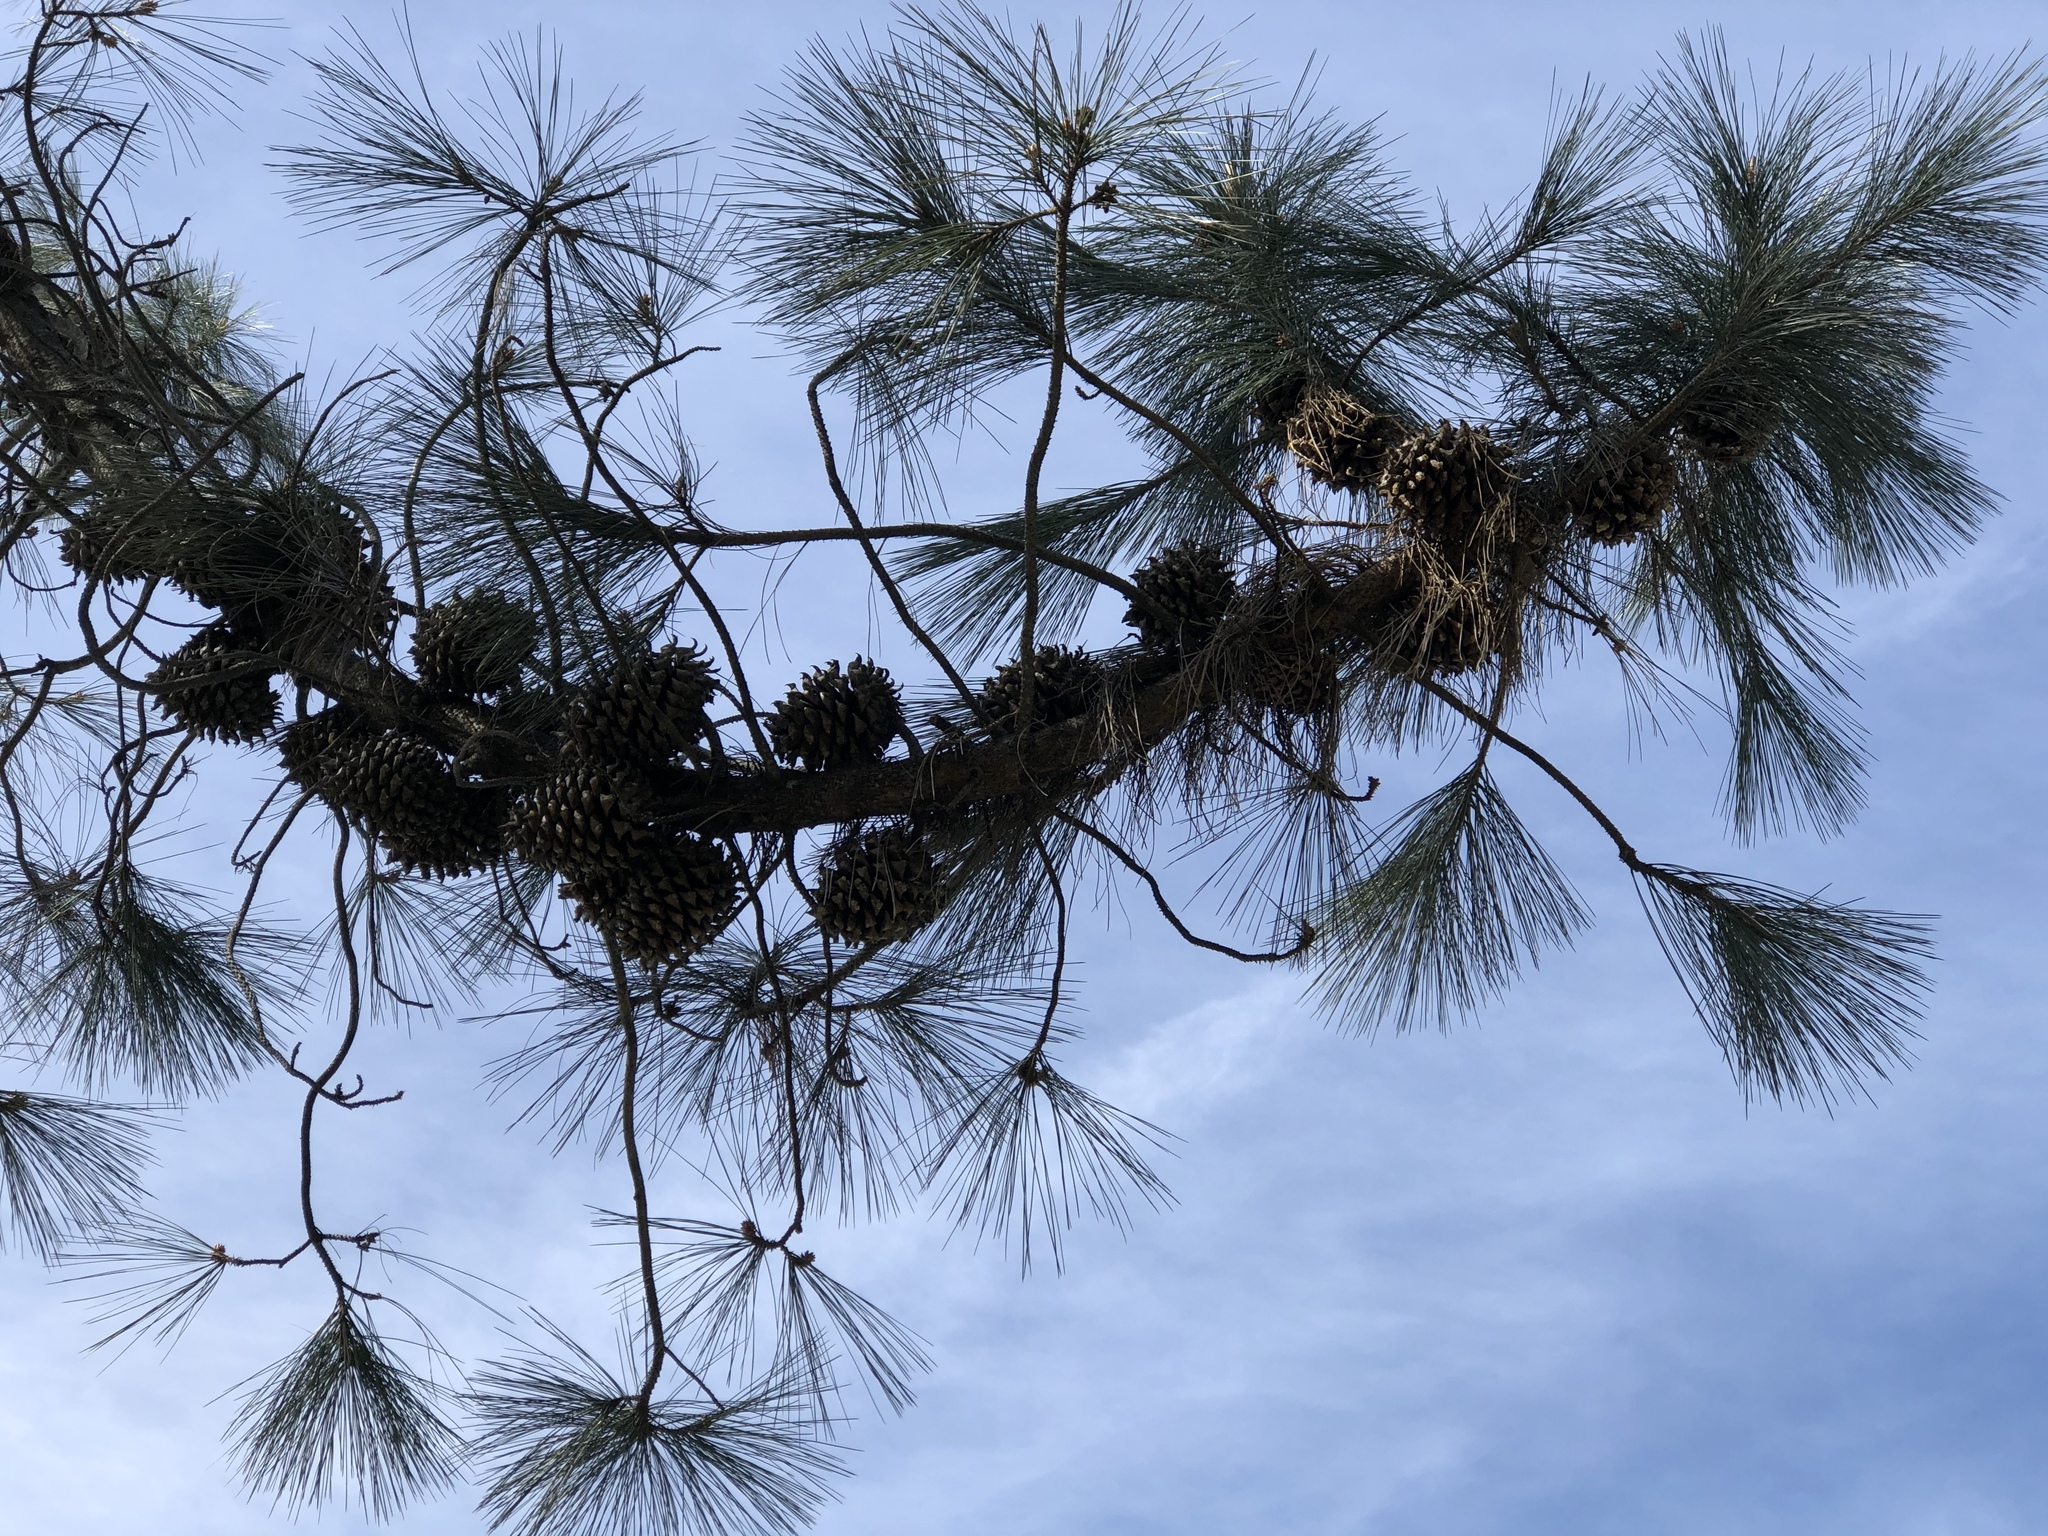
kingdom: Plantae
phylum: Tracheophyta
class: Pinopsida
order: Pinales
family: Pinaceae
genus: Pinus
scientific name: Pinus sabiniana
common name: Bull pine
